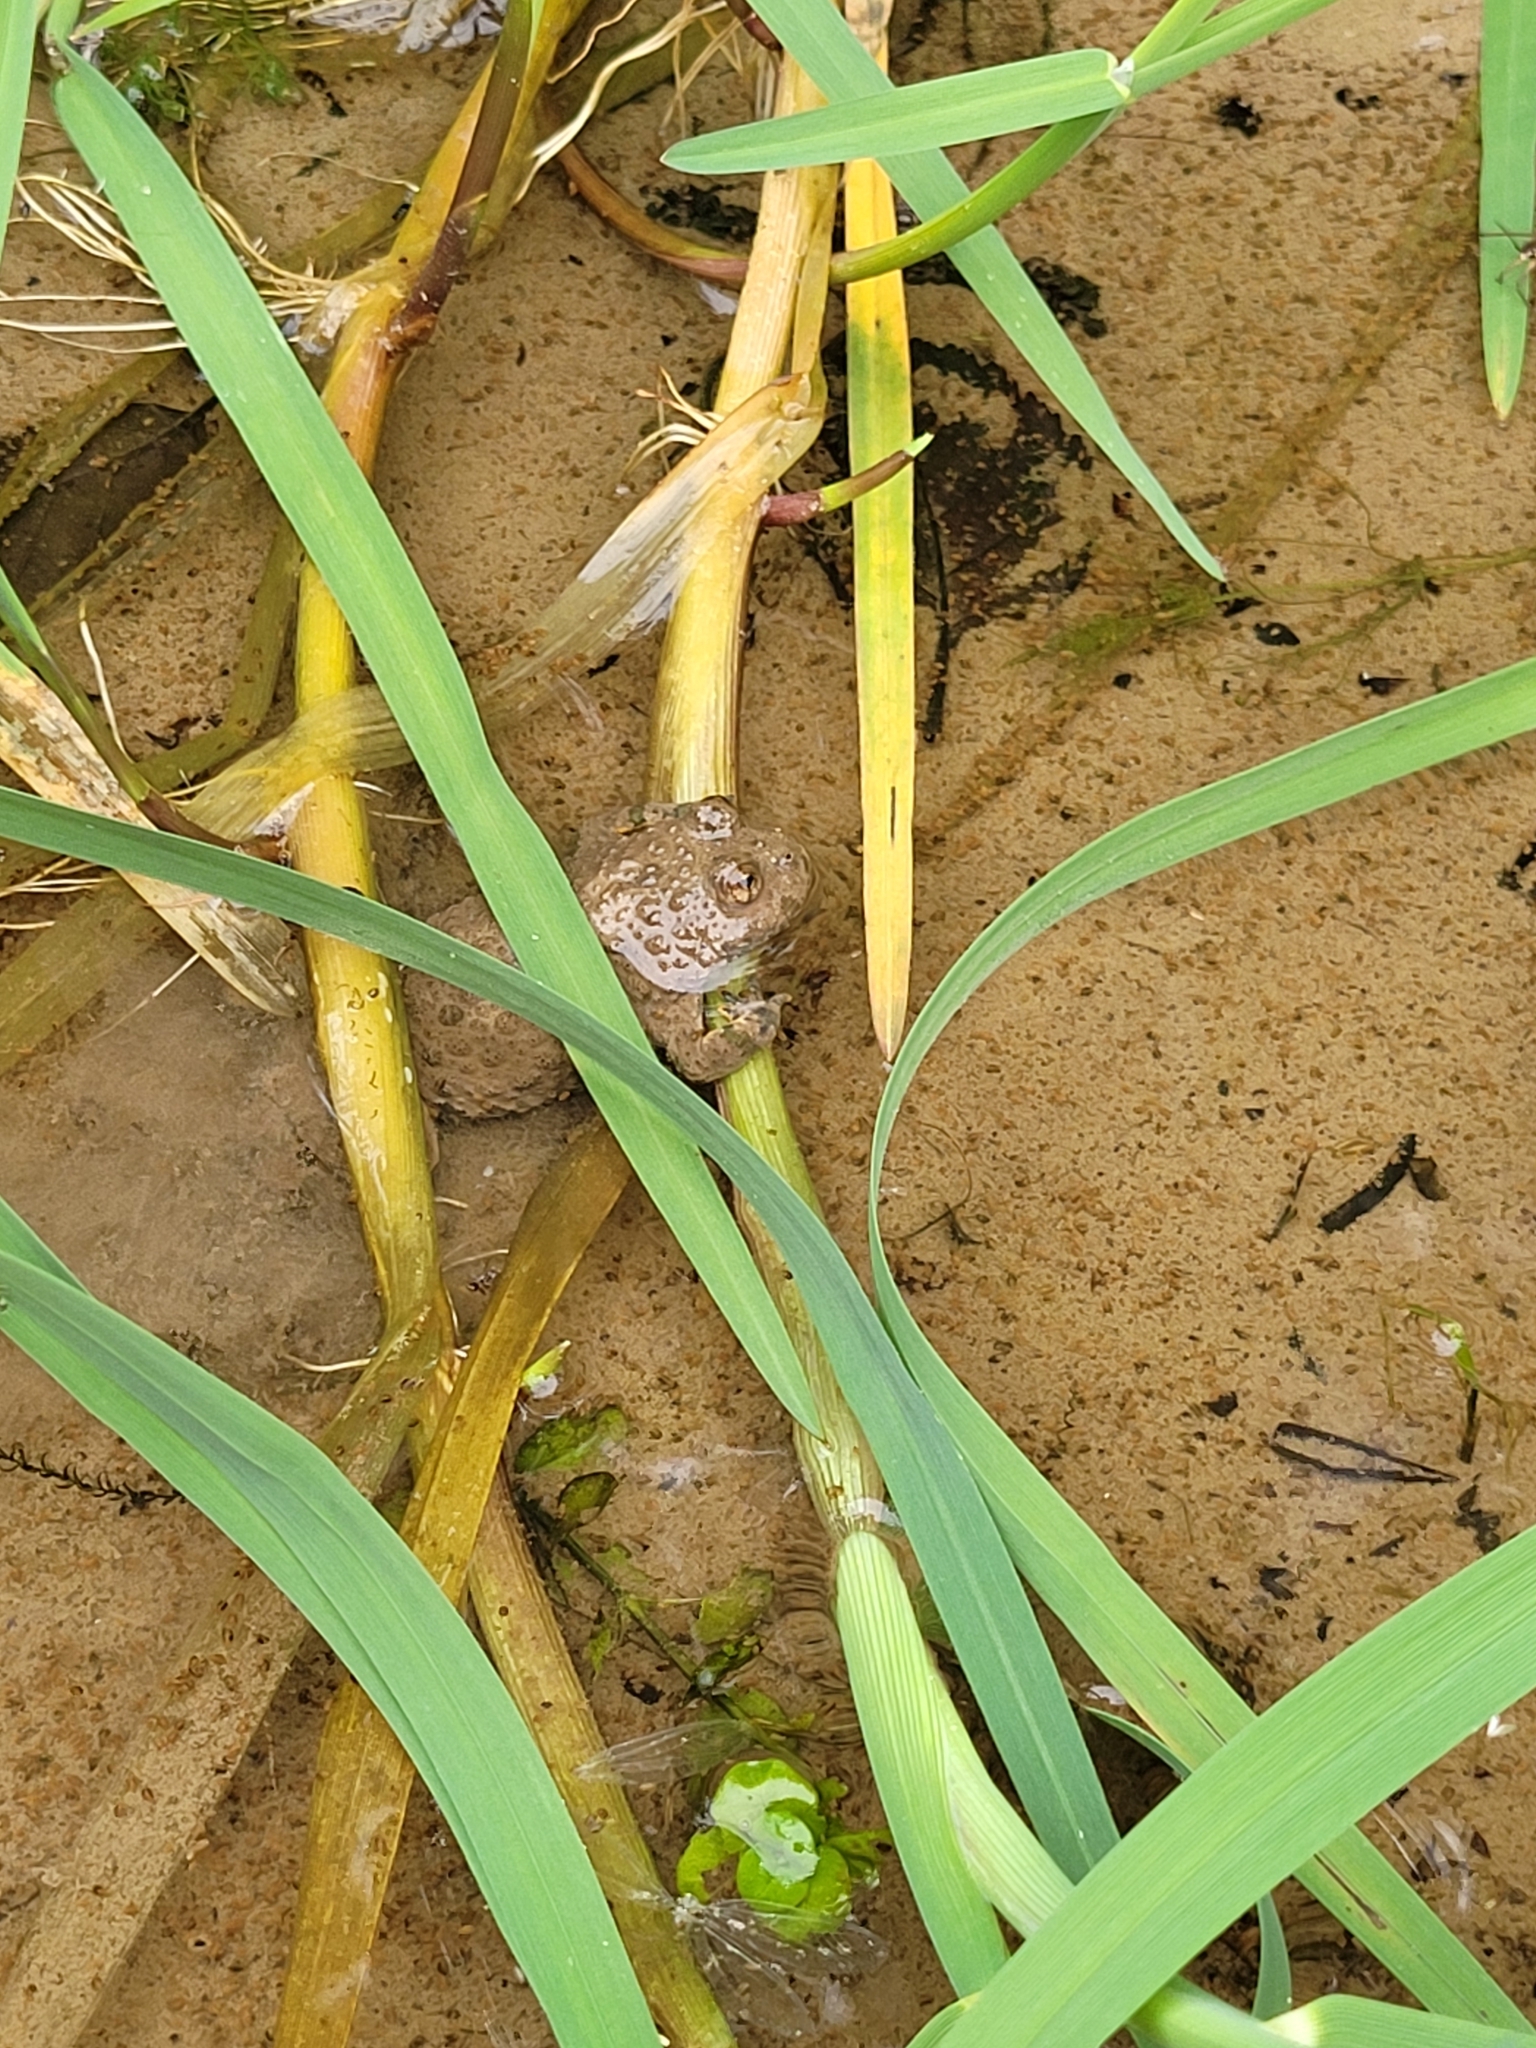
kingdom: Animalia
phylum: Chordata
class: Amphibia
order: Anura
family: Bombinatoridae
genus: Bombina
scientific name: Bombina variegata
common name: Yellow-bellied toad
